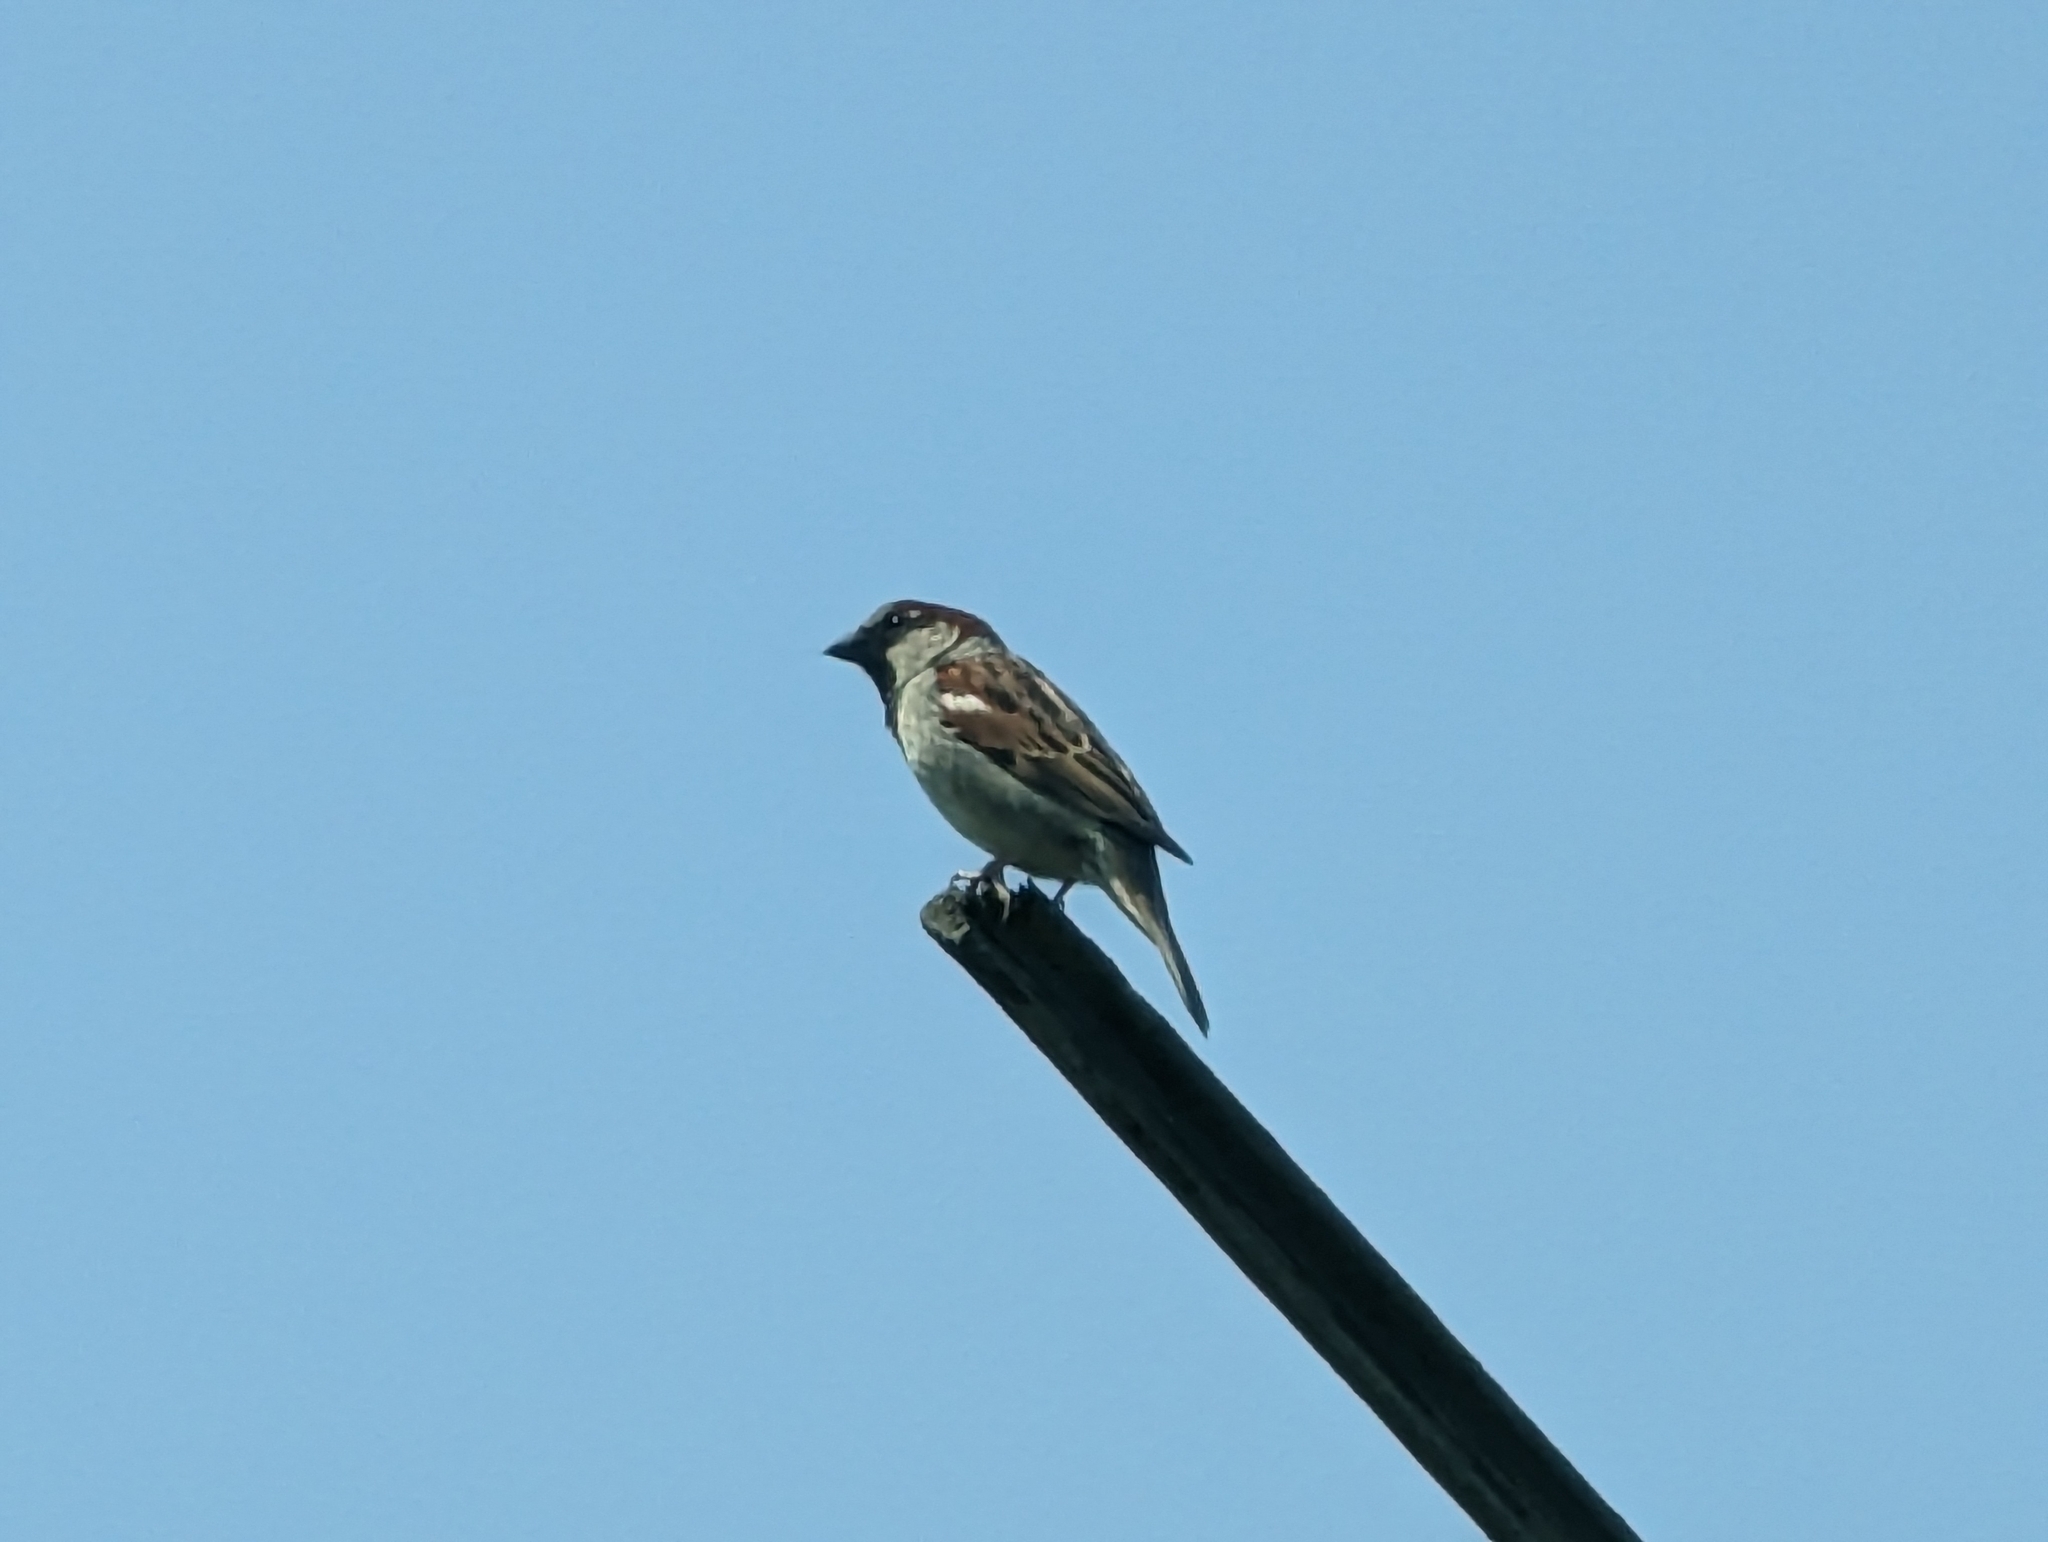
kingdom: Animalia
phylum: Chordata
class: Aves
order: Passeriformes
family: Passeridae
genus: Passer
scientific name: Passer domesticus
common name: House sparrow
